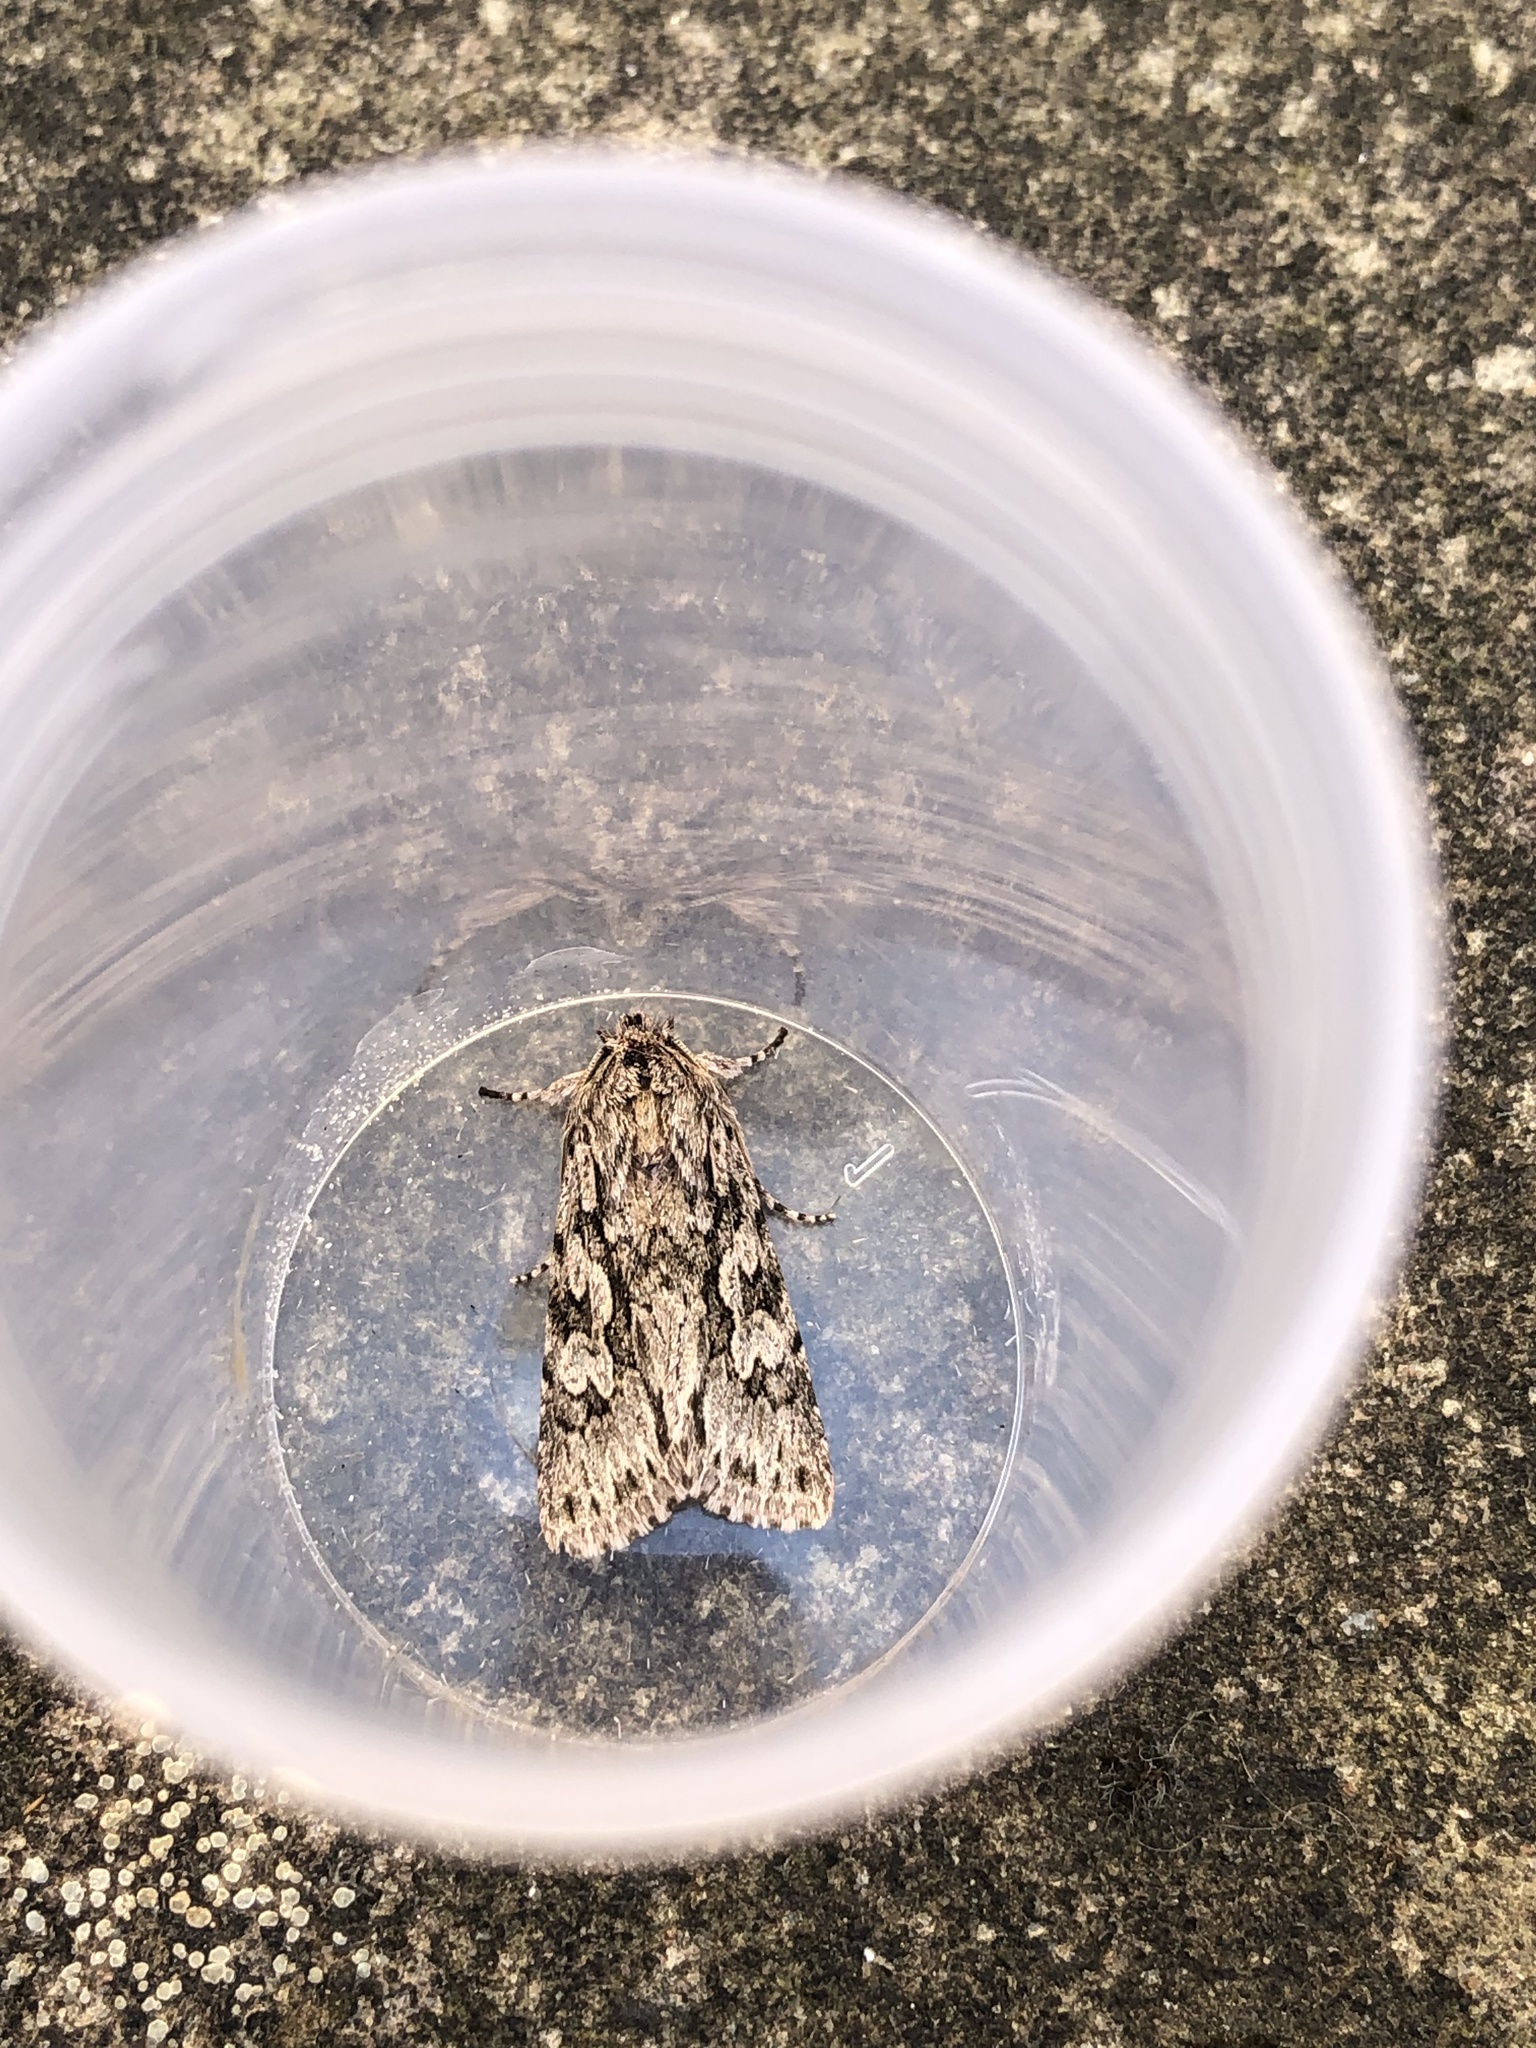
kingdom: Animalia
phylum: Arthropoda
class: Insecta
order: Lepidoptera
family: Noctuidae
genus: Xylocampa
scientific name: Xylocampa areola
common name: Early grey
